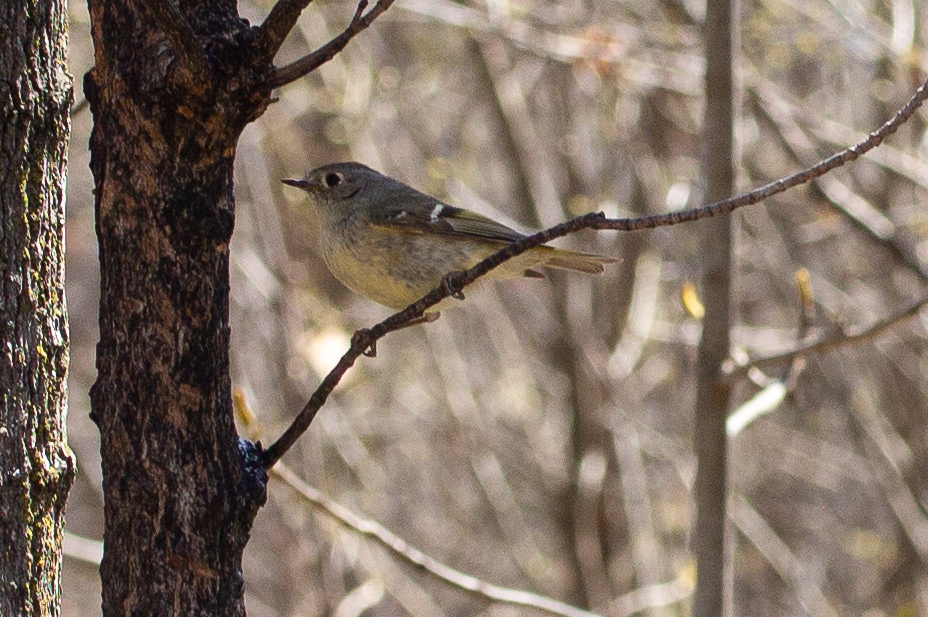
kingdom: Animalia
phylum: Chordata
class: Aves
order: Passeriformes
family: Regulidae
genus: Regulus
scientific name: Regulus calendula
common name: Ruby-crowned kinglet
